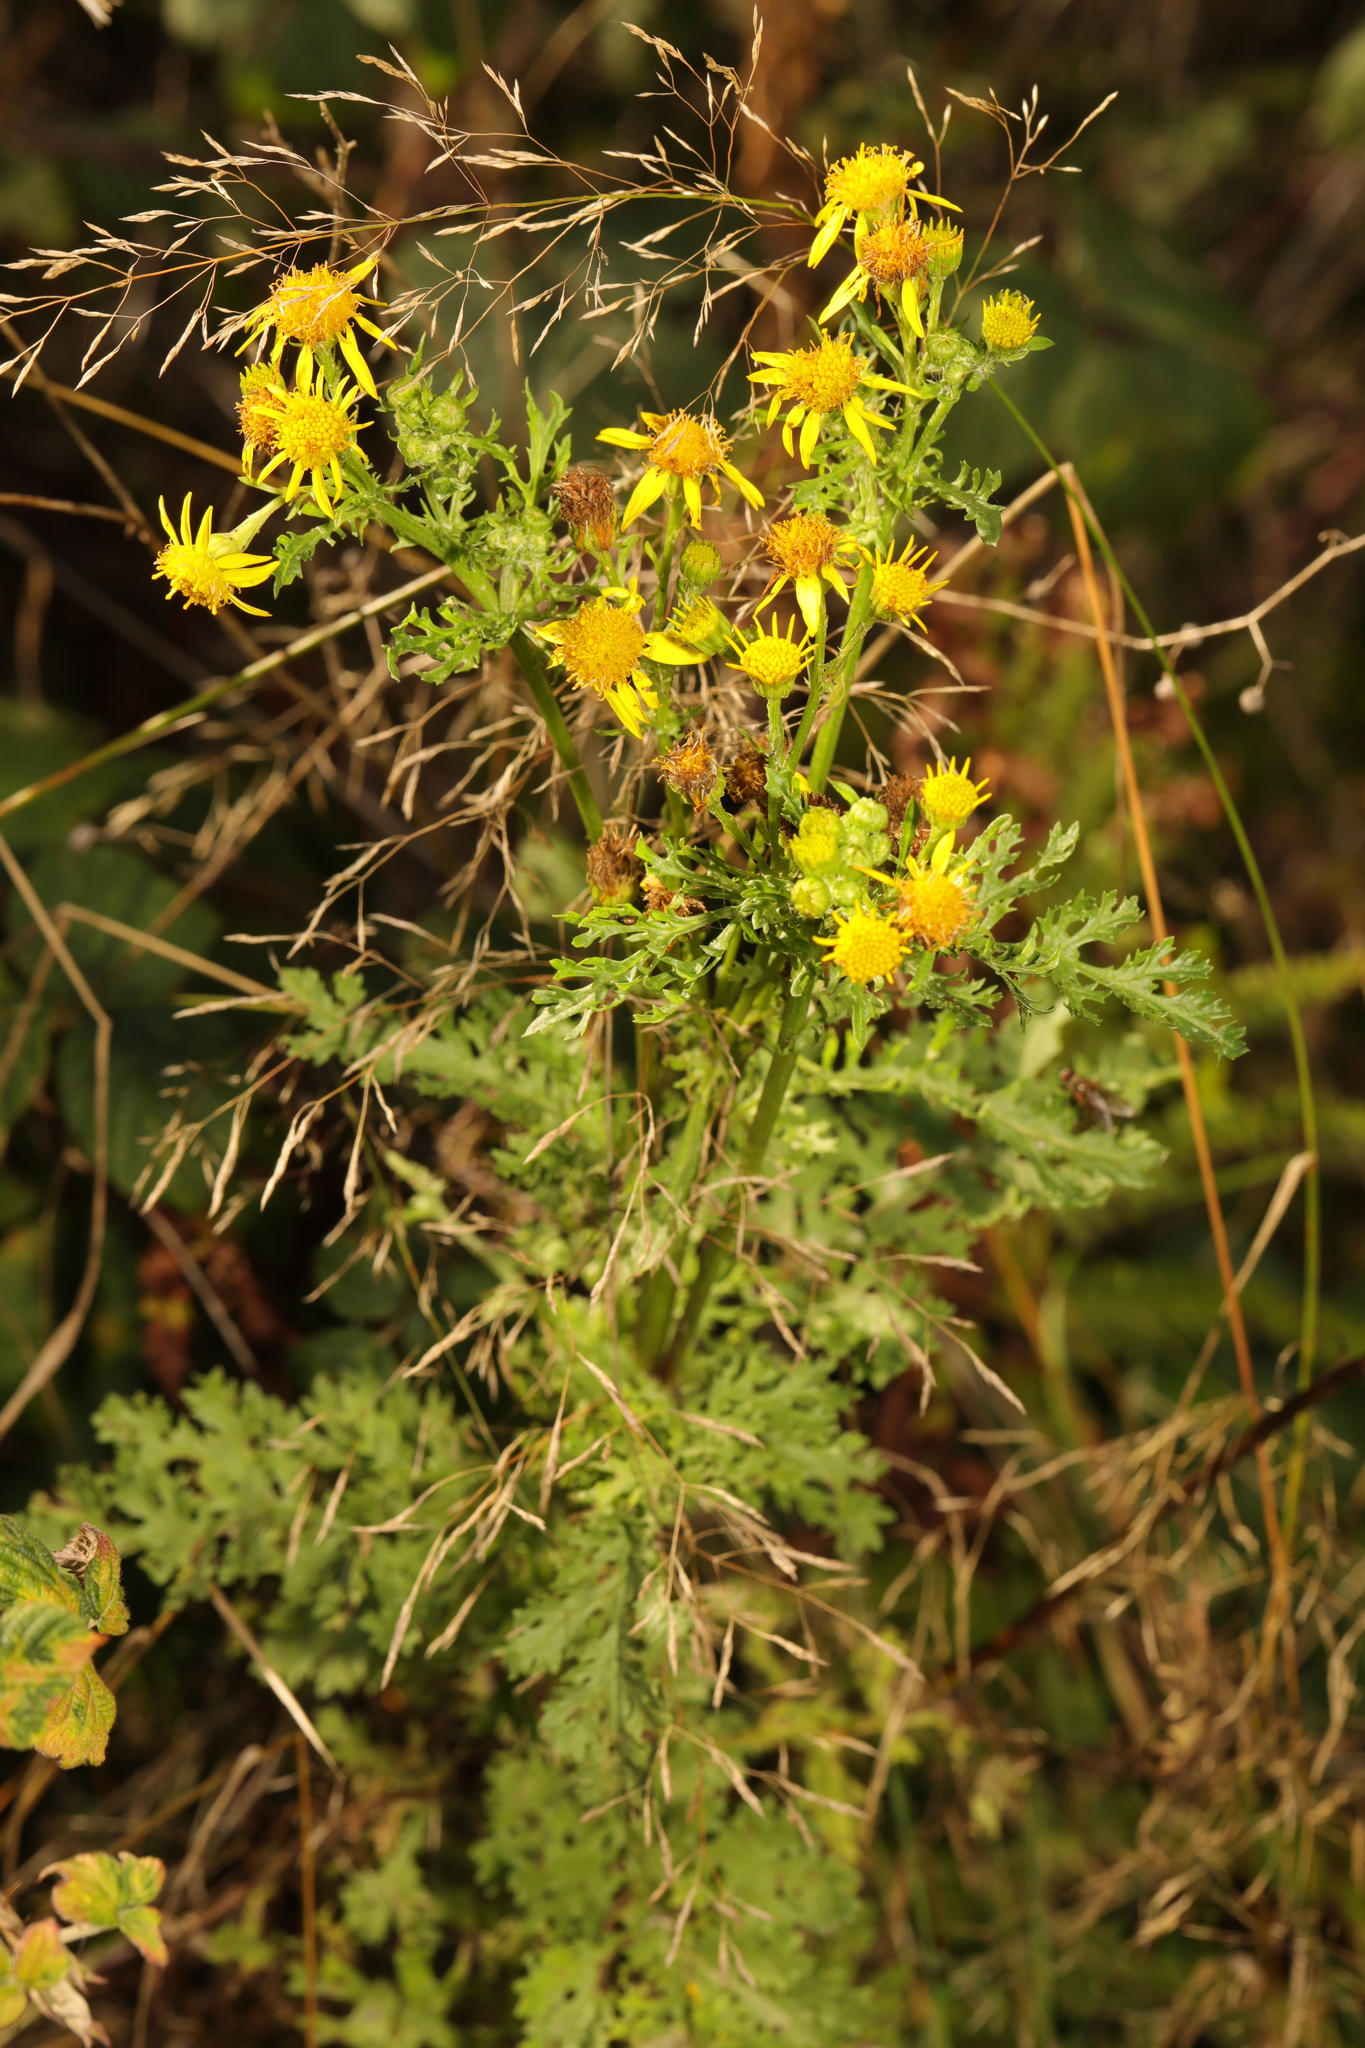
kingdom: Plantae
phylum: Tracheophyta
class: Magnoliopsida
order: Asterales
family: Asteraceae
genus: Jacobaea
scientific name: Jacobaea vulgaris
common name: Stinking willie
